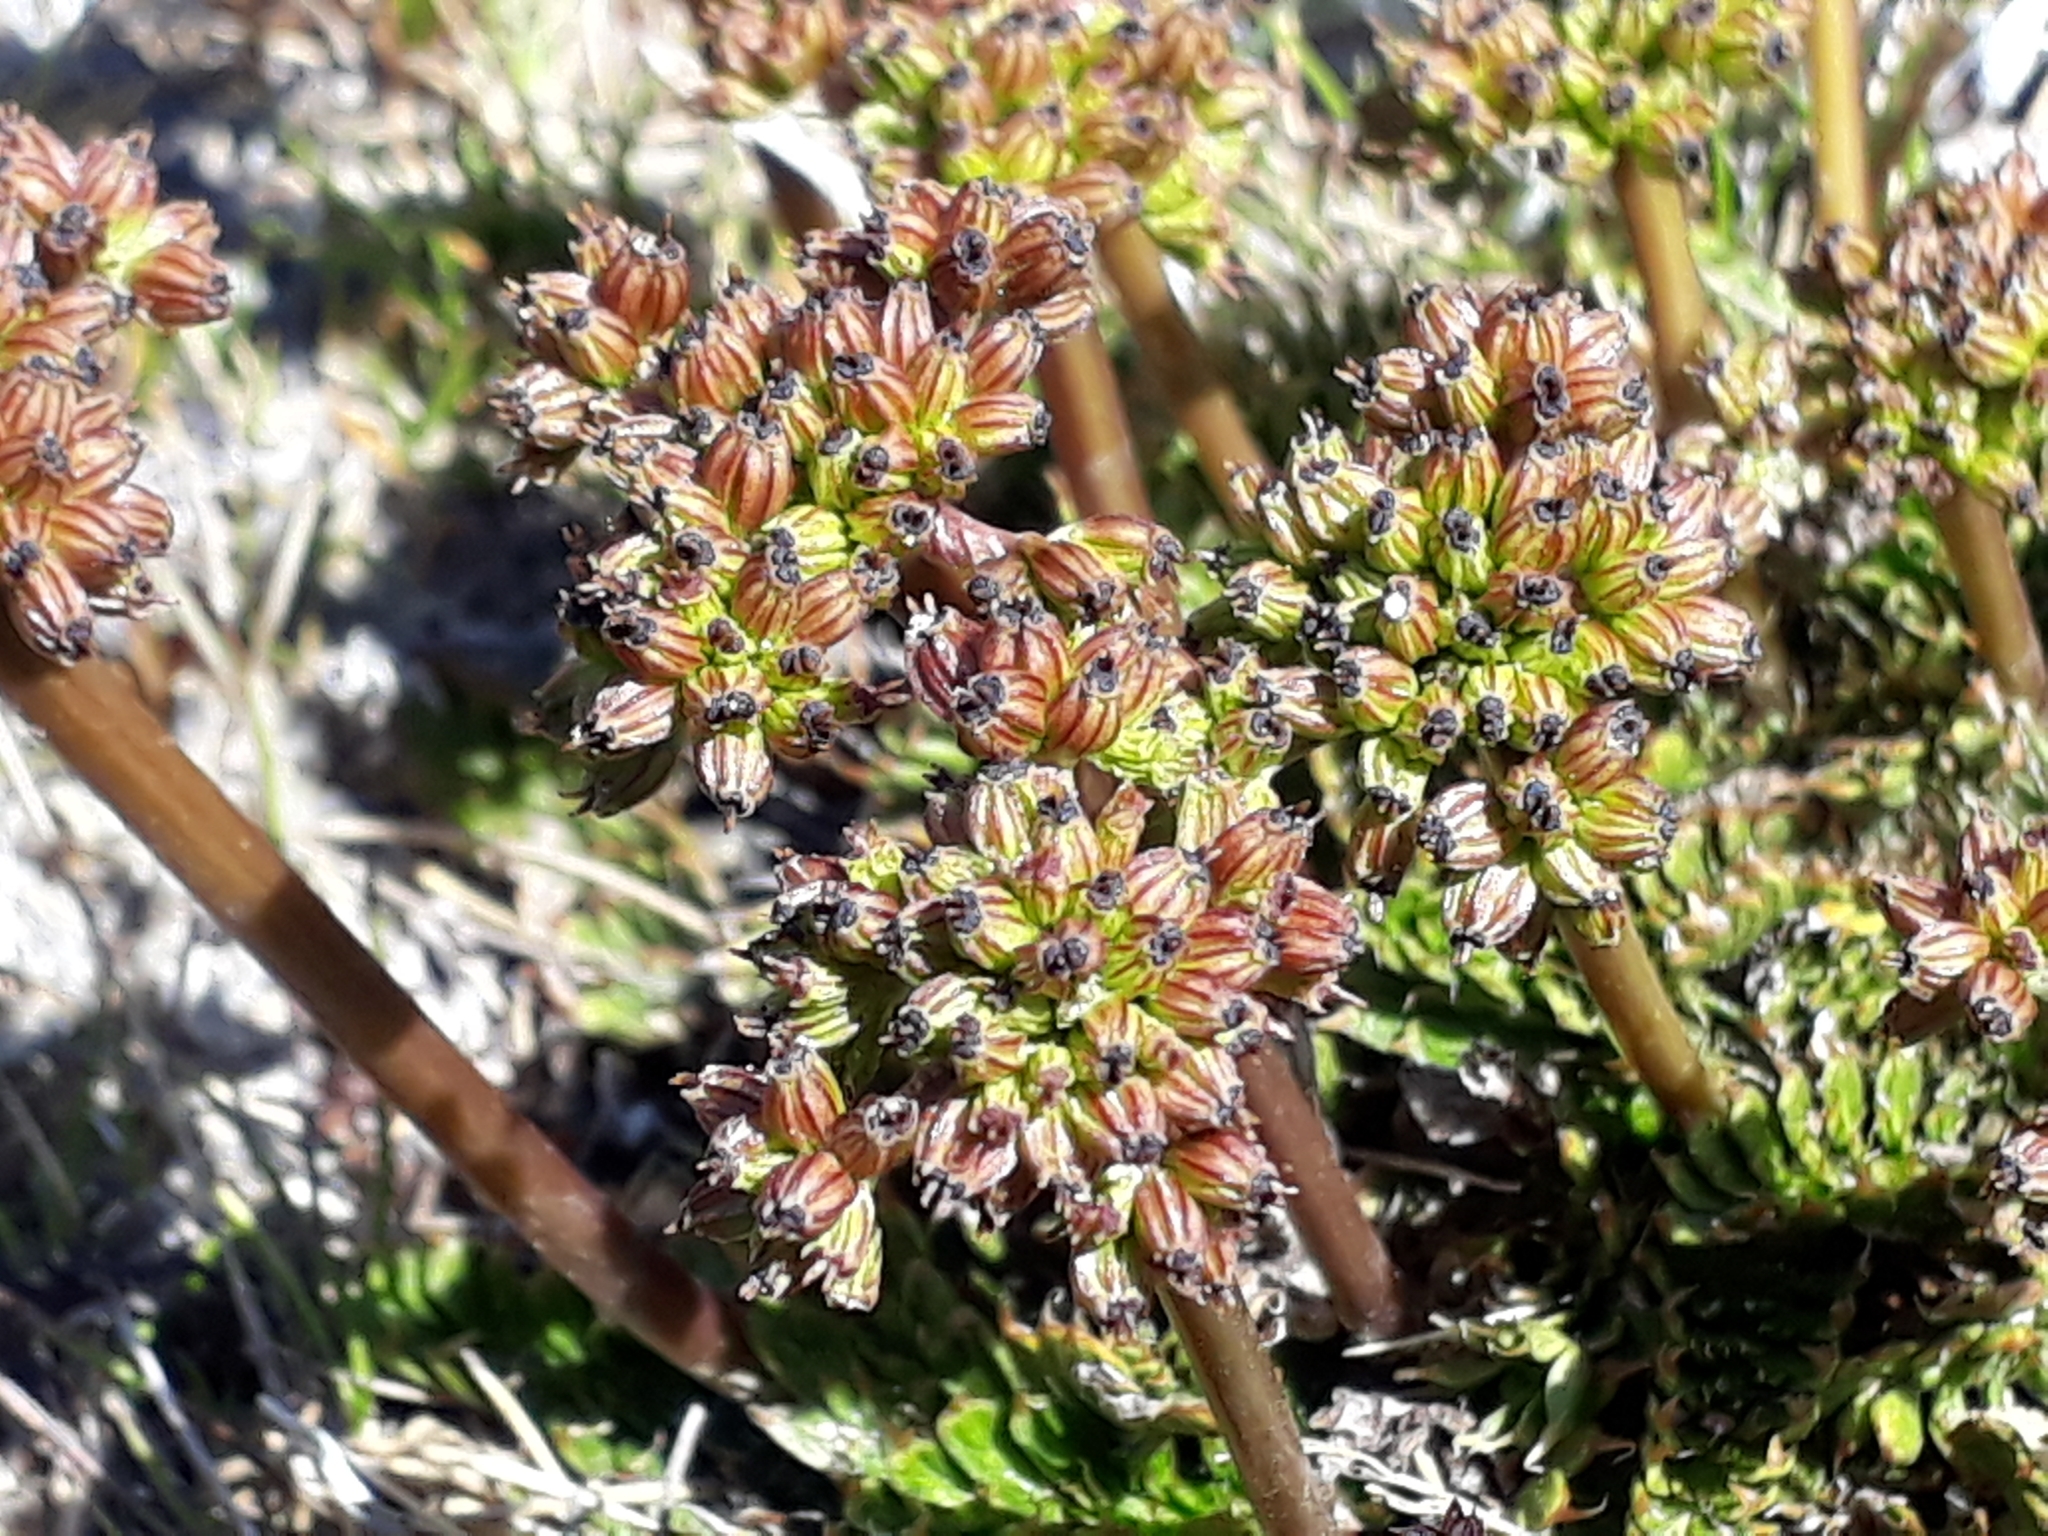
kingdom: Plantae
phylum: Tracheophyta
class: Magnoliopsida
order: Apiales
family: Apiaceae
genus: Anisotome
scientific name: Anisotome flexuosa
